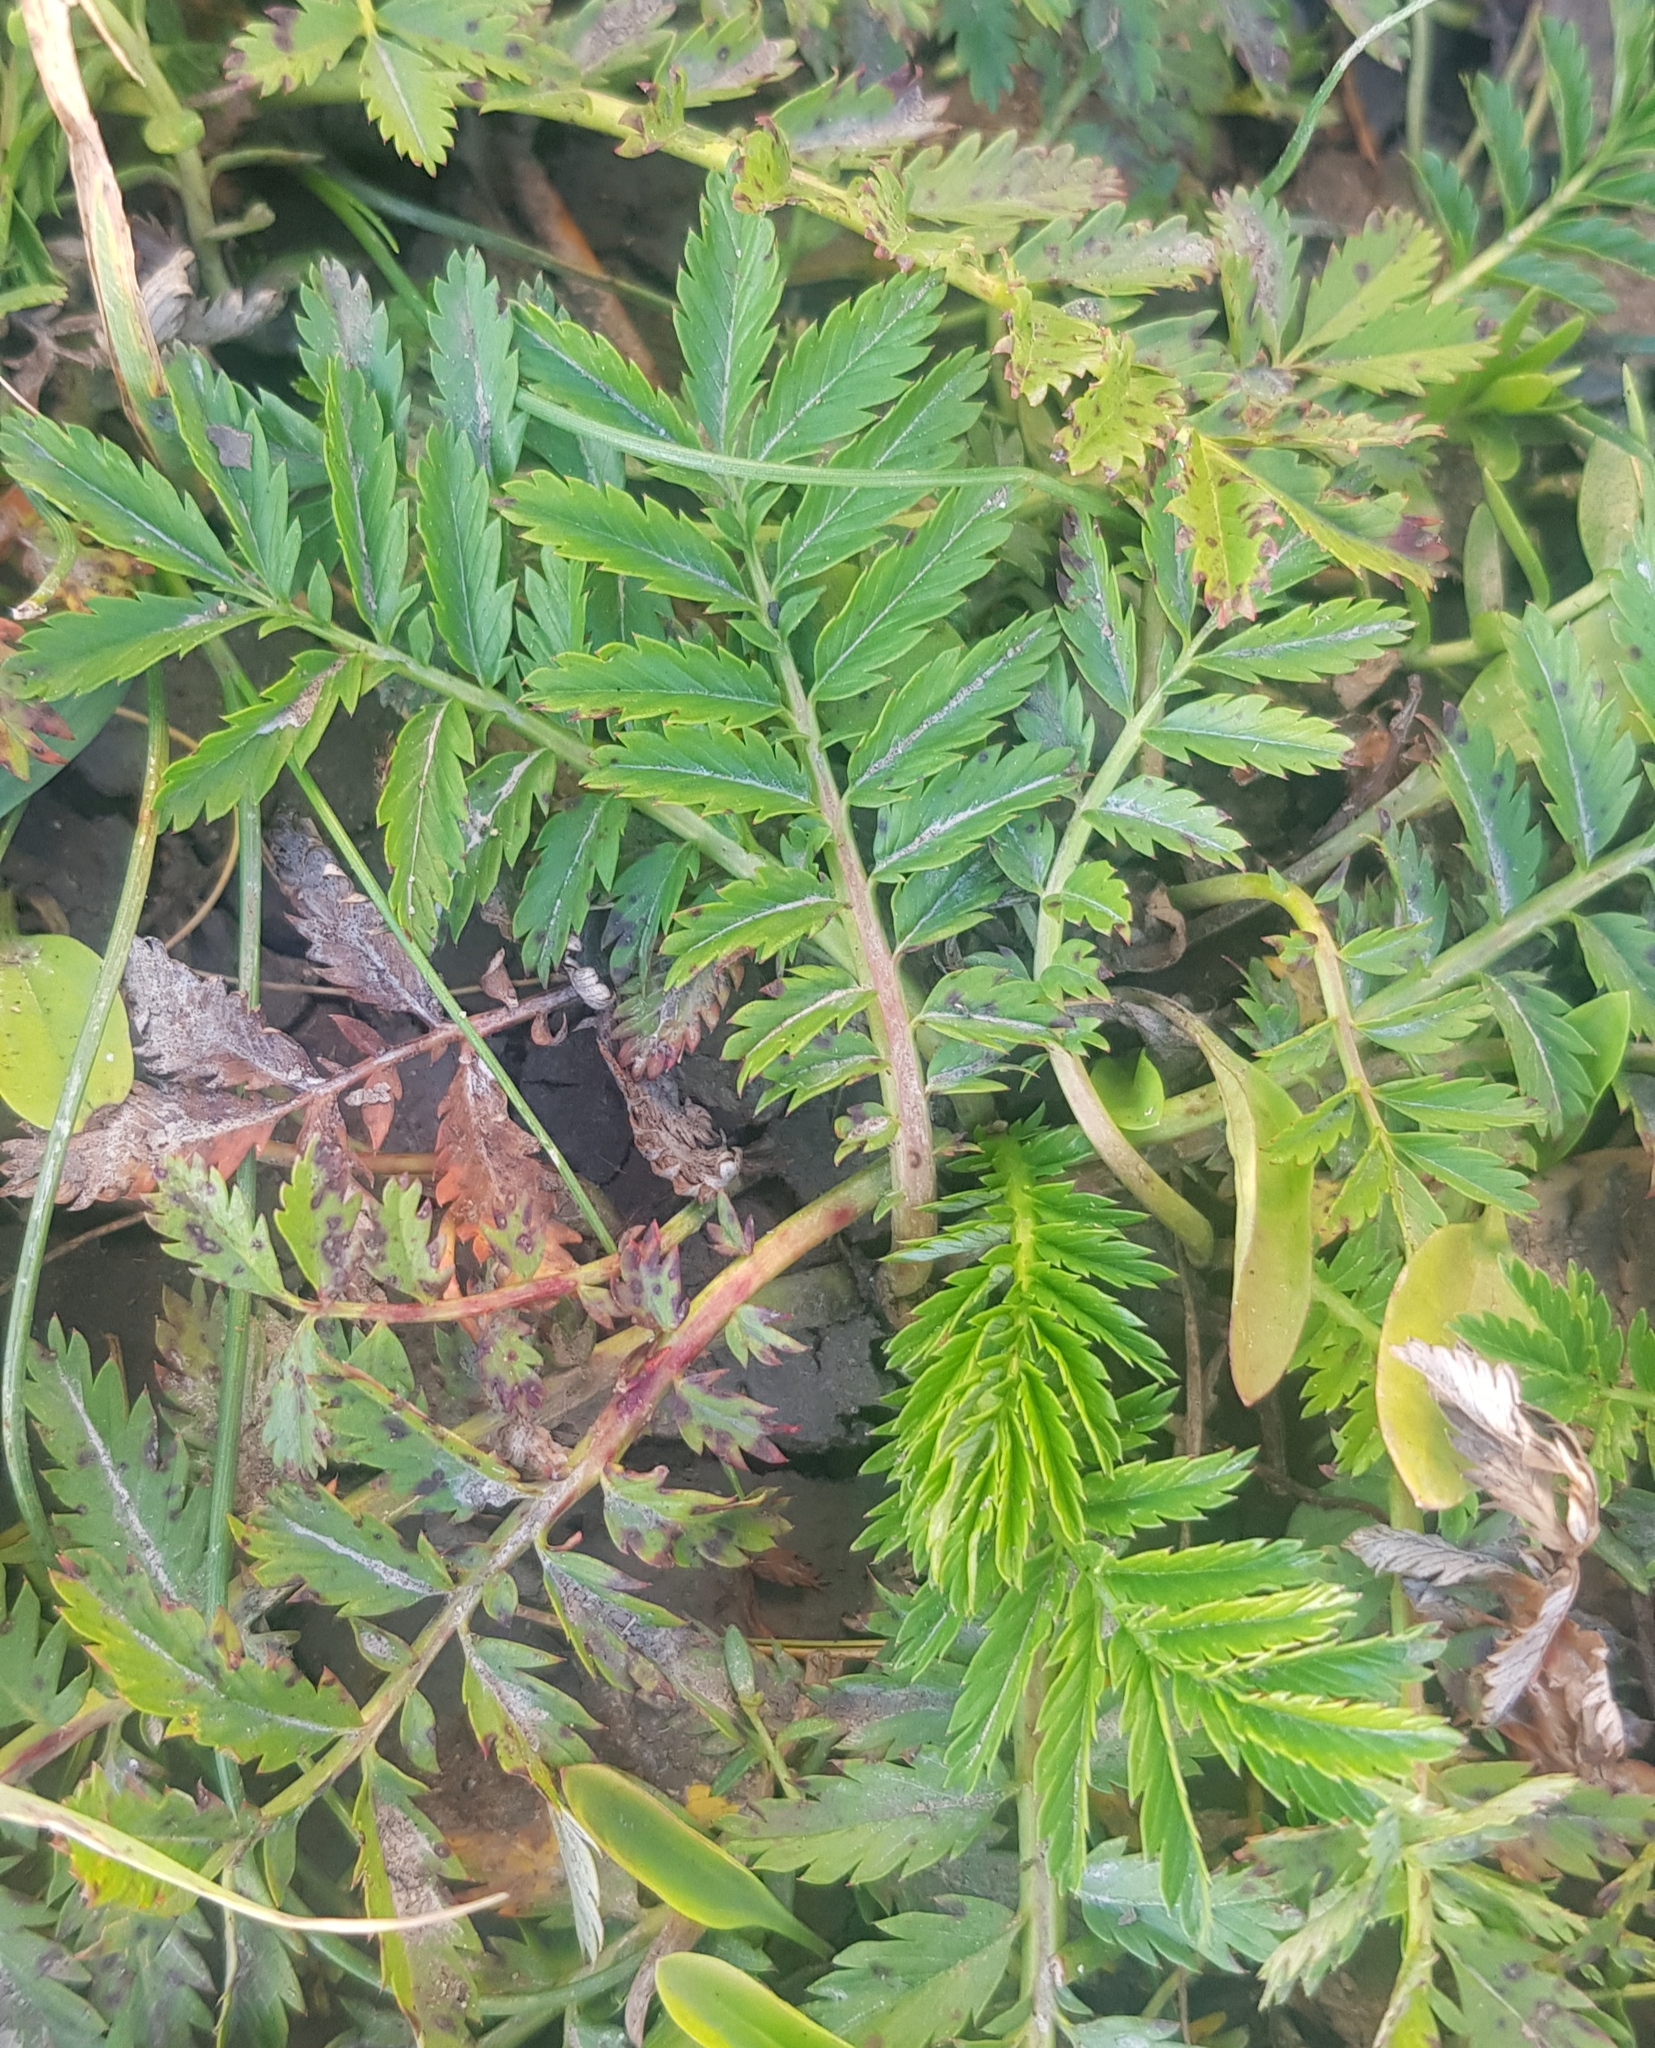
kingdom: Plantae
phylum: Tracheophyta
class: Magnoliopsida
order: Rosales
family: Rosaceae
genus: Potentilla
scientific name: Potentilla tanacetifolia
